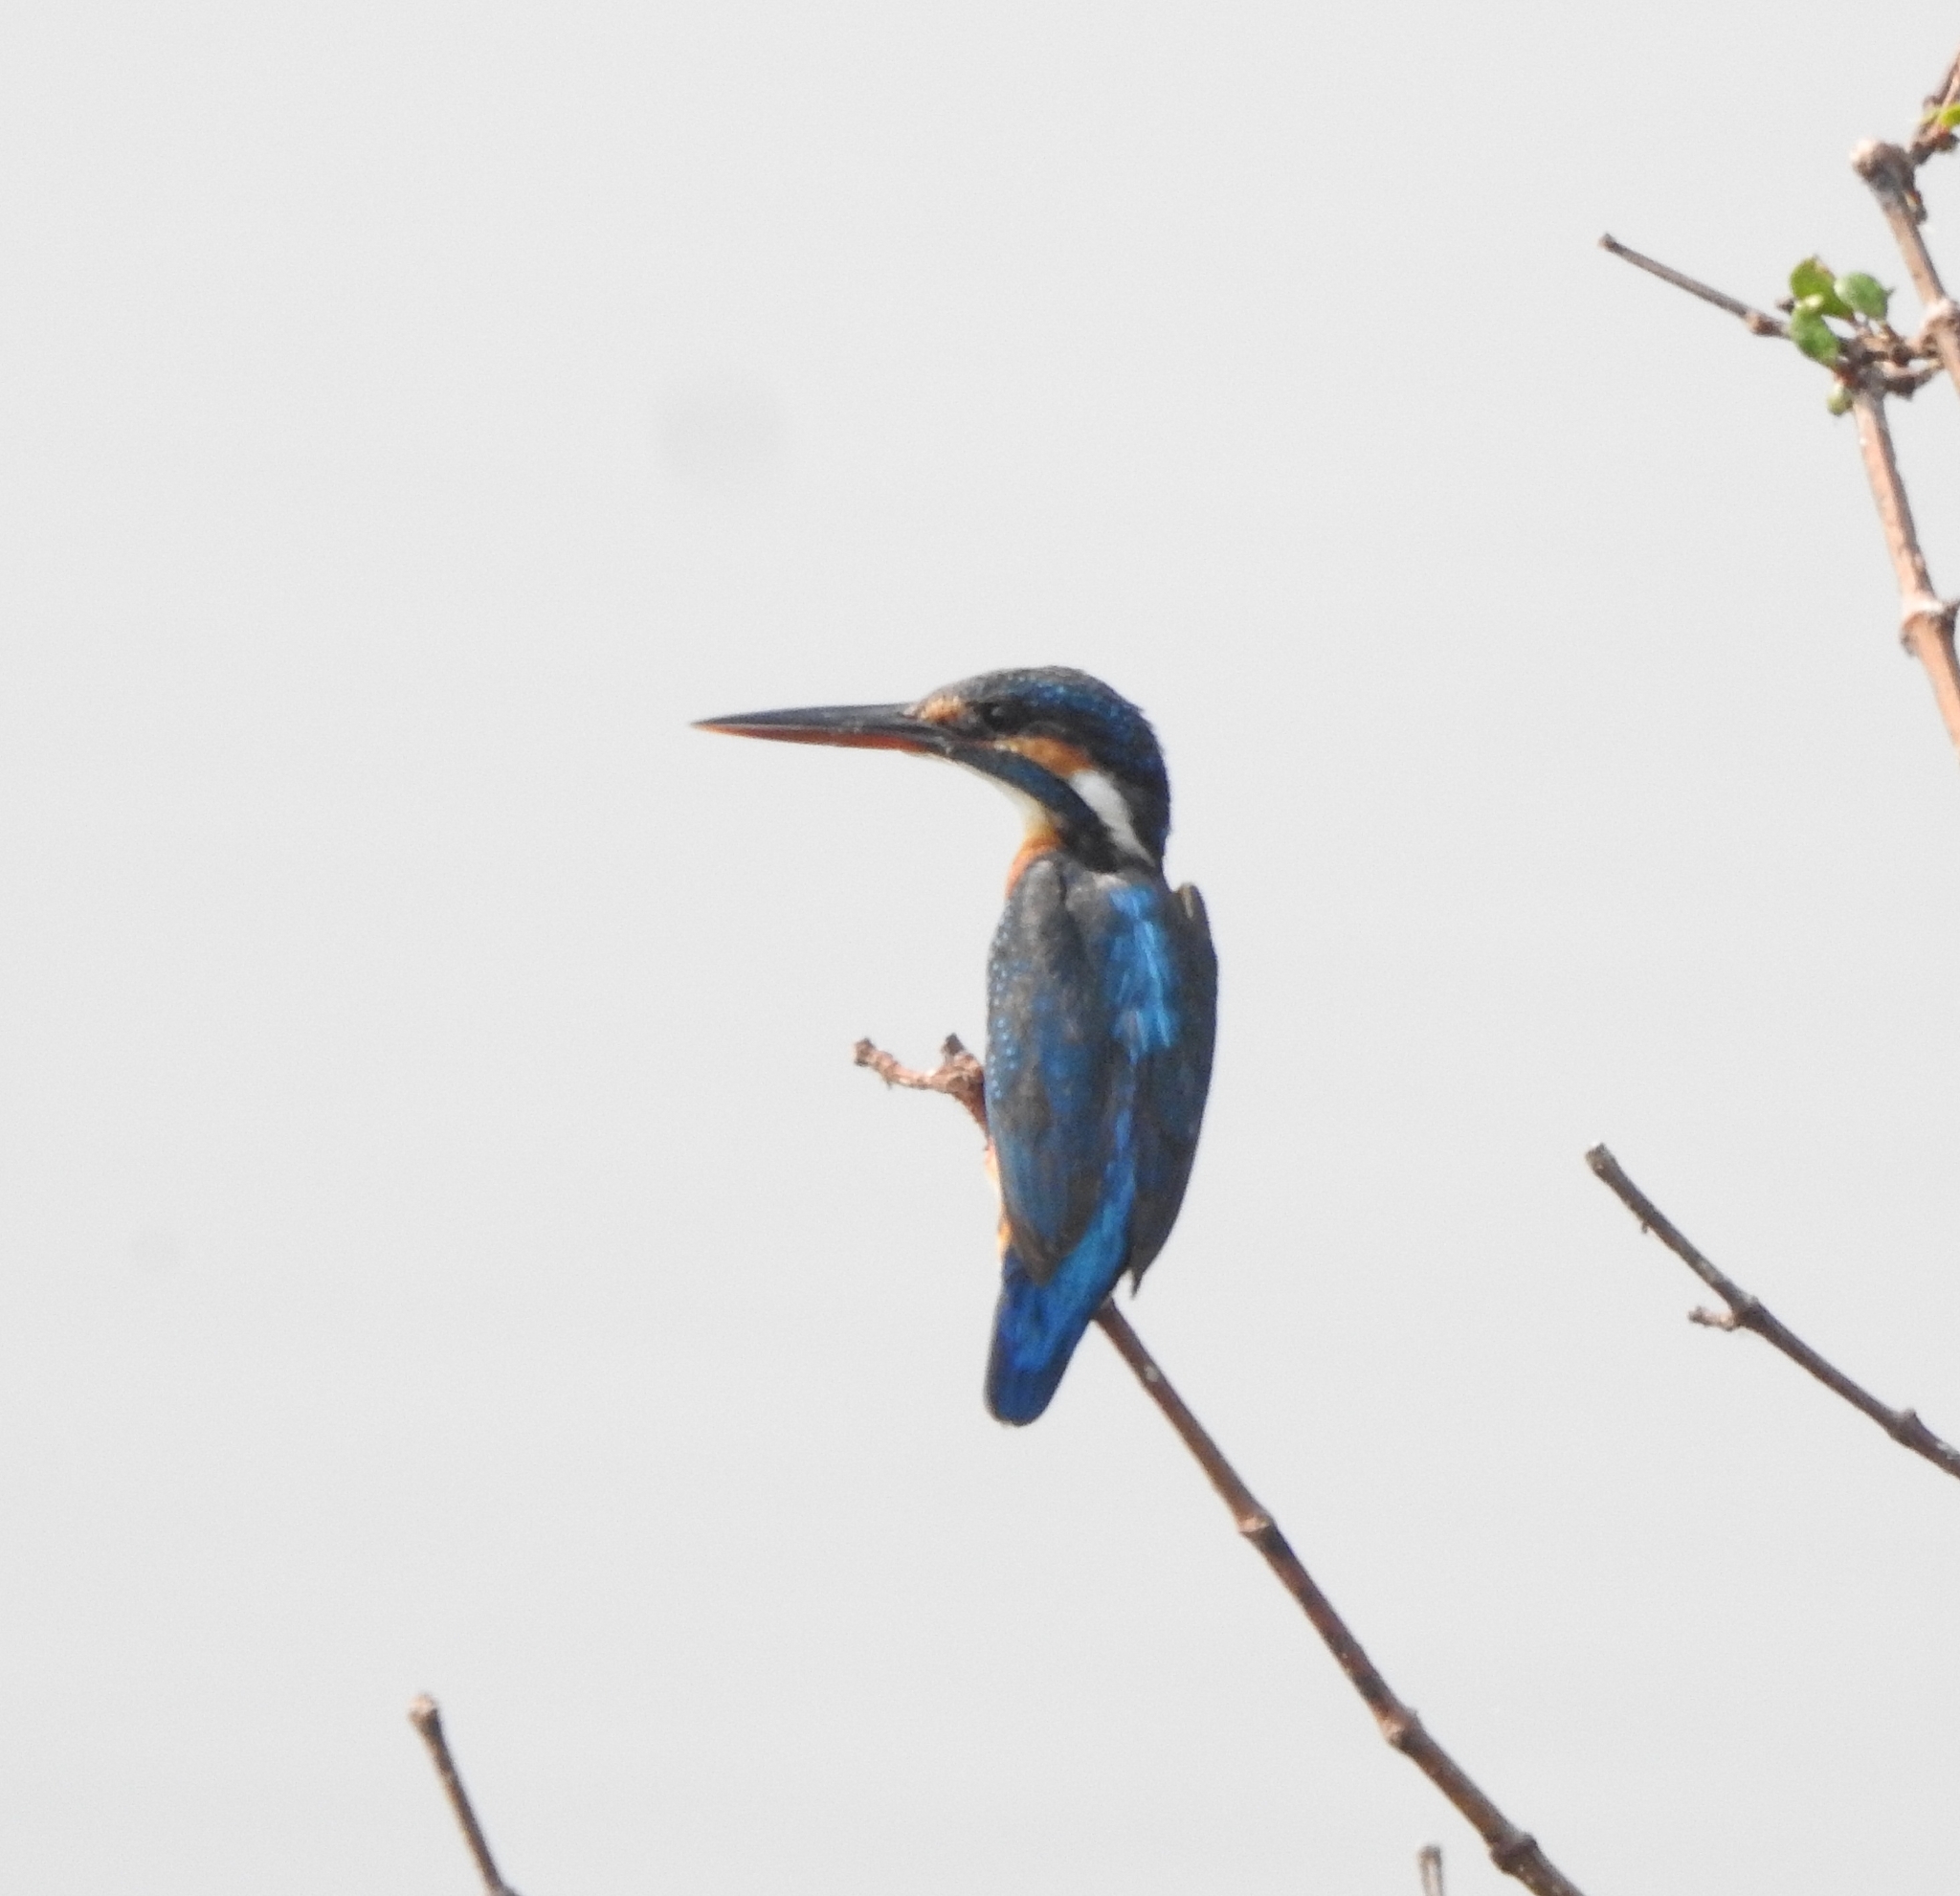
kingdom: Animalia
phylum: Chordata
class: Aves
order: Coraciiformes
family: Alcedinidae
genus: Alcedo
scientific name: Alcedo atthis
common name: Common kingfisher
